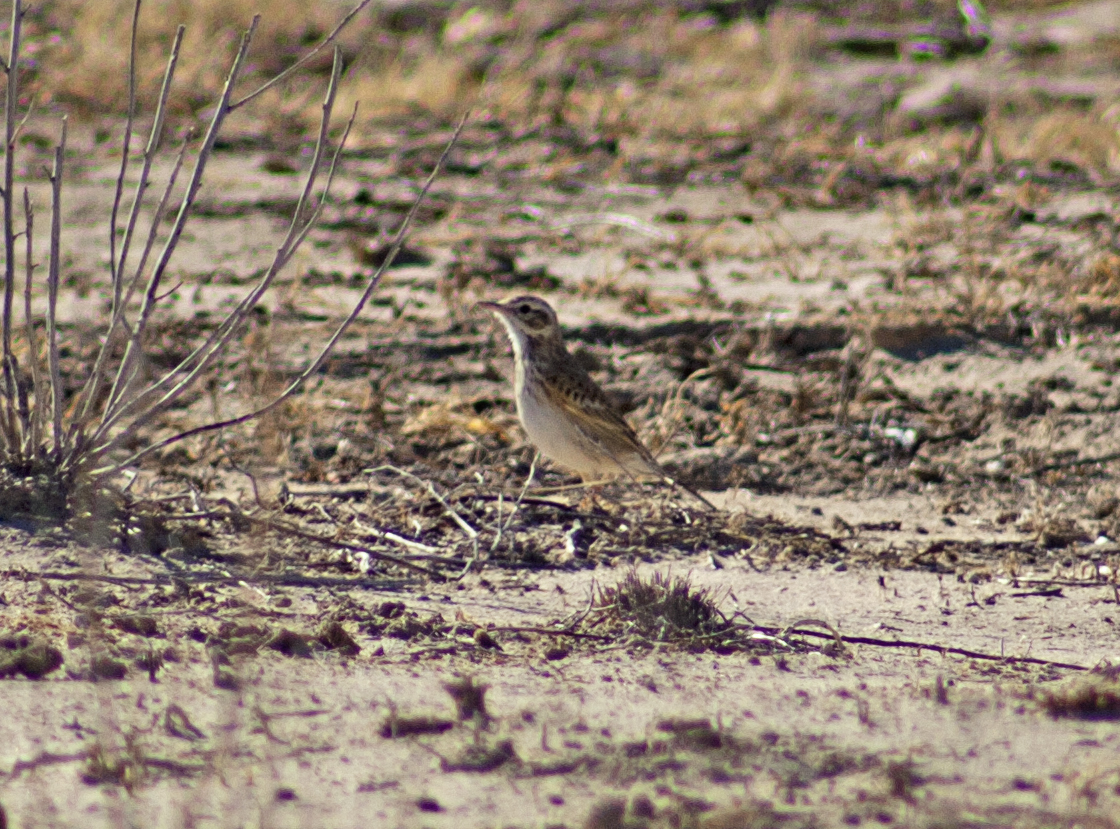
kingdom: Animalia
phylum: Chordata
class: Aves
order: Passeriformes
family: Motacillidae
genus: Anthus
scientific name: Anthus australis
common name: Australian pipit
